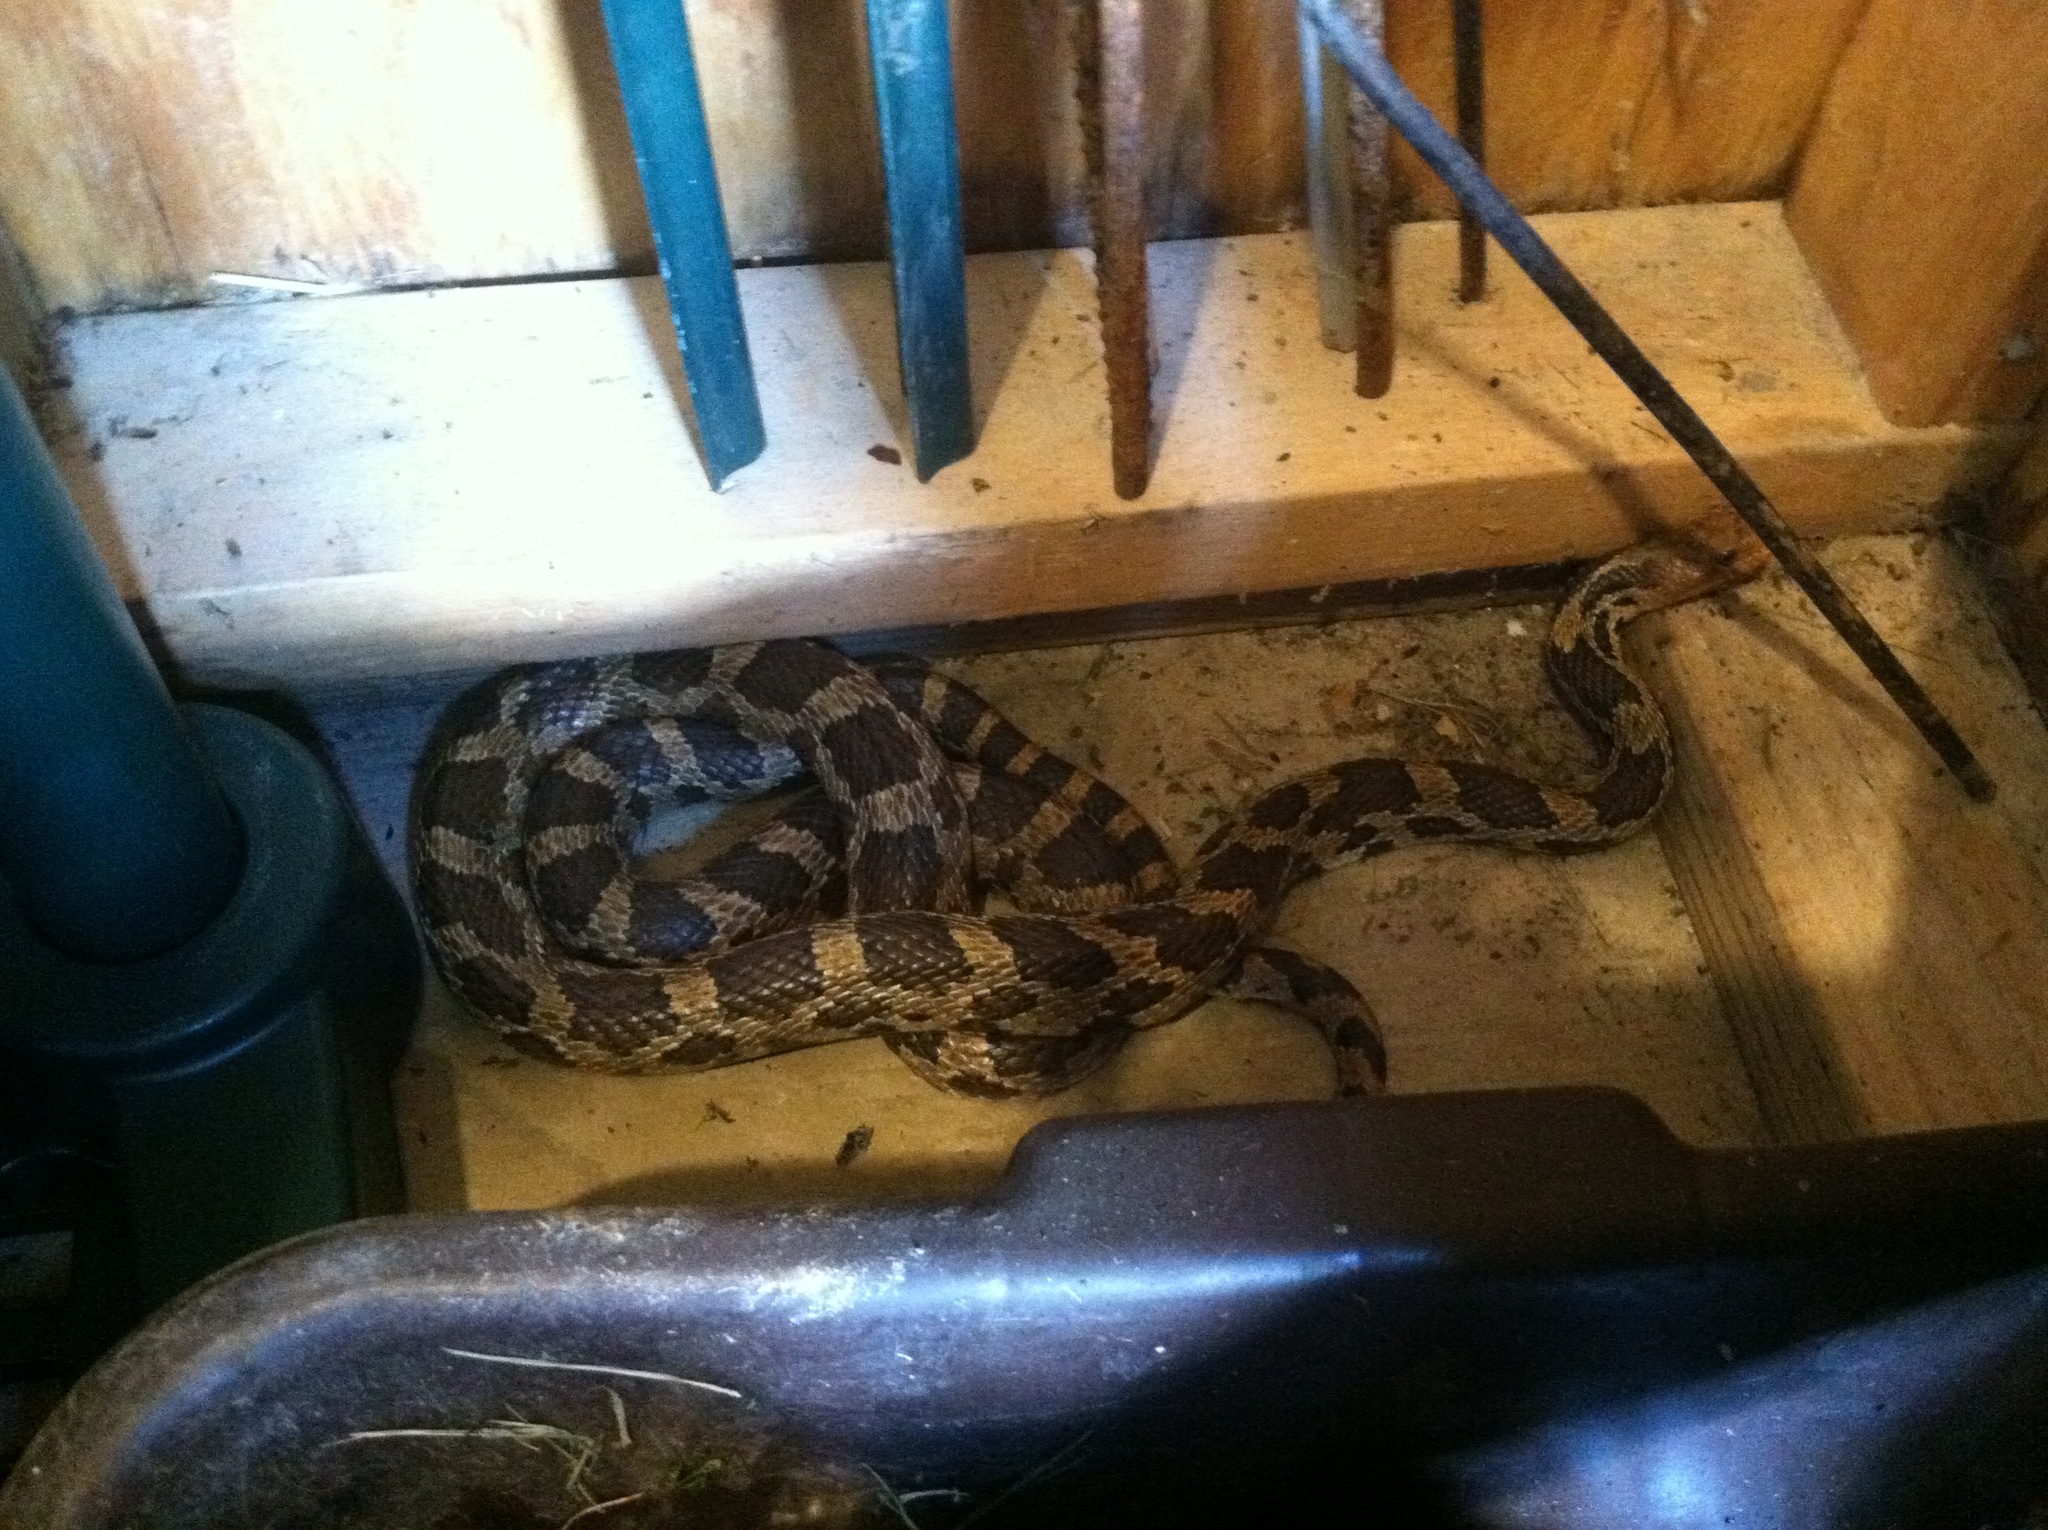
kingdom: Animalia
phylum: Chordata
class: Squamata
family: Colubridae
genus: Pantherophis
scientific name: Pantherophis ramspotti
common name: Western foxsnake
